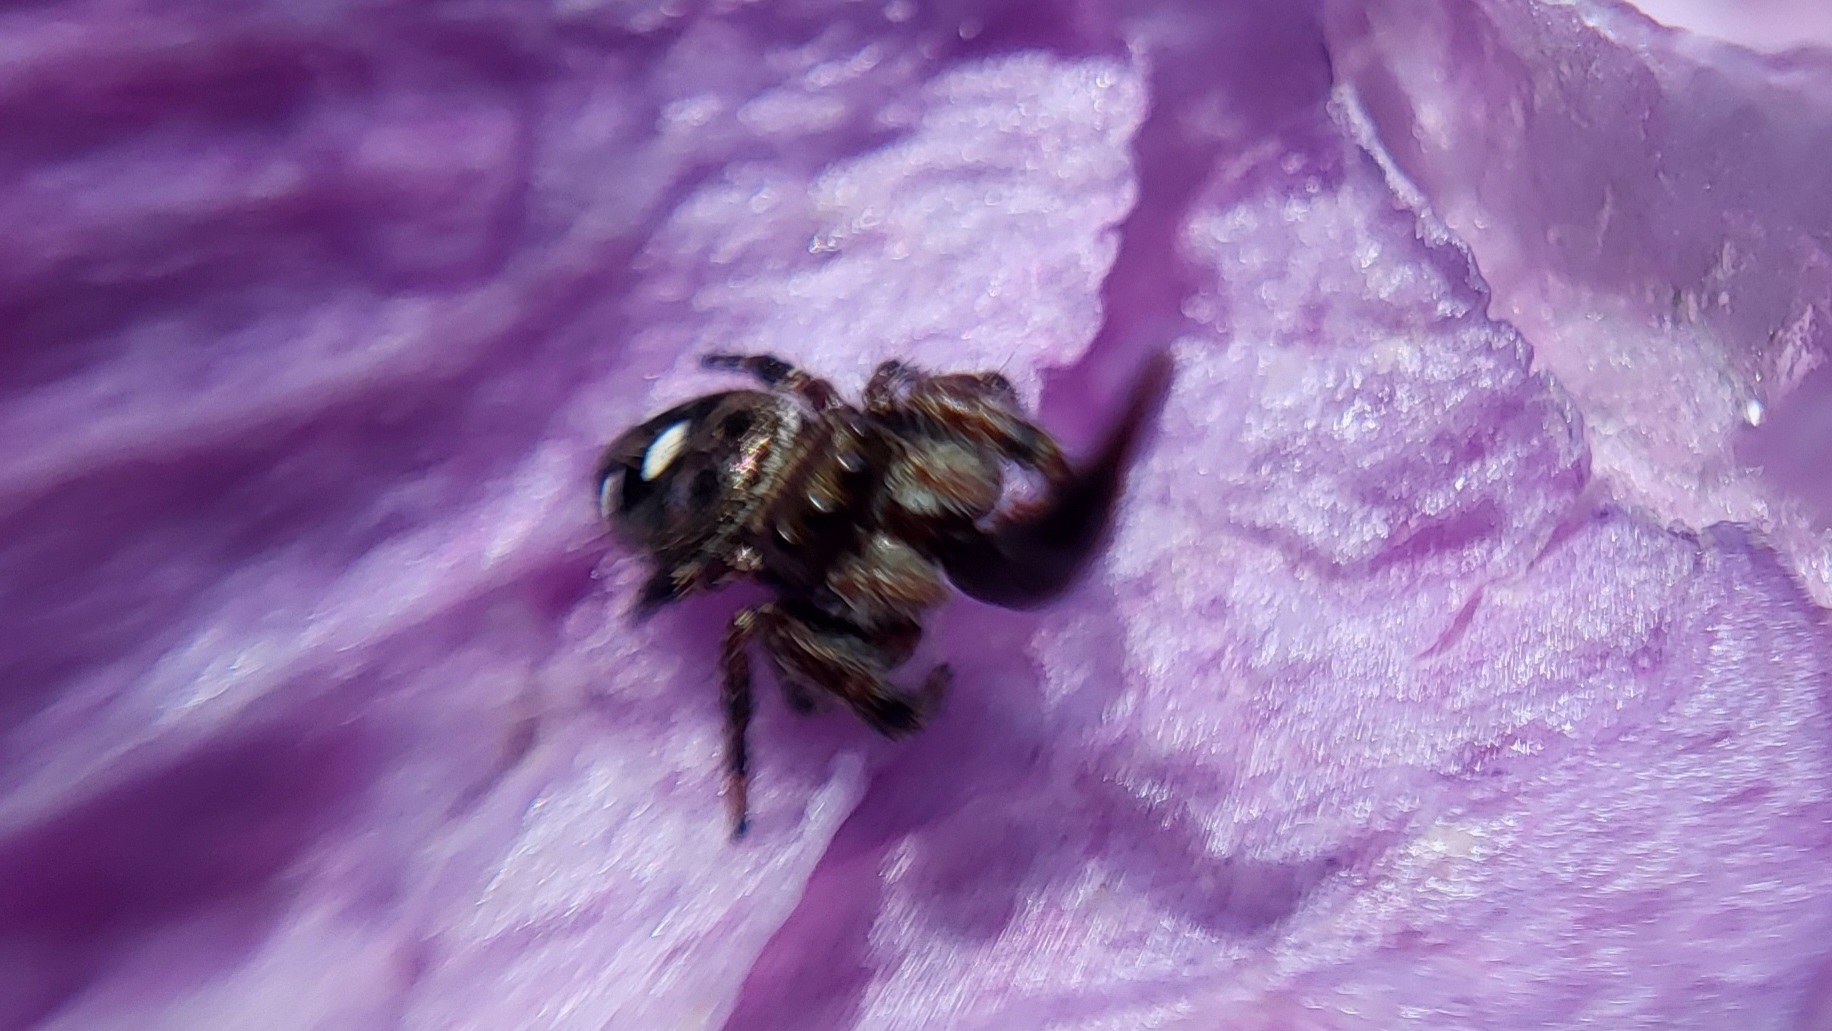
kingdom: Animalia
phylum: Arthropoda
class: Arachnida
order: Araneae
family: Salticidae
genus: Phidippus
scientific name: Phidippus audax
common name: Bold jumper
